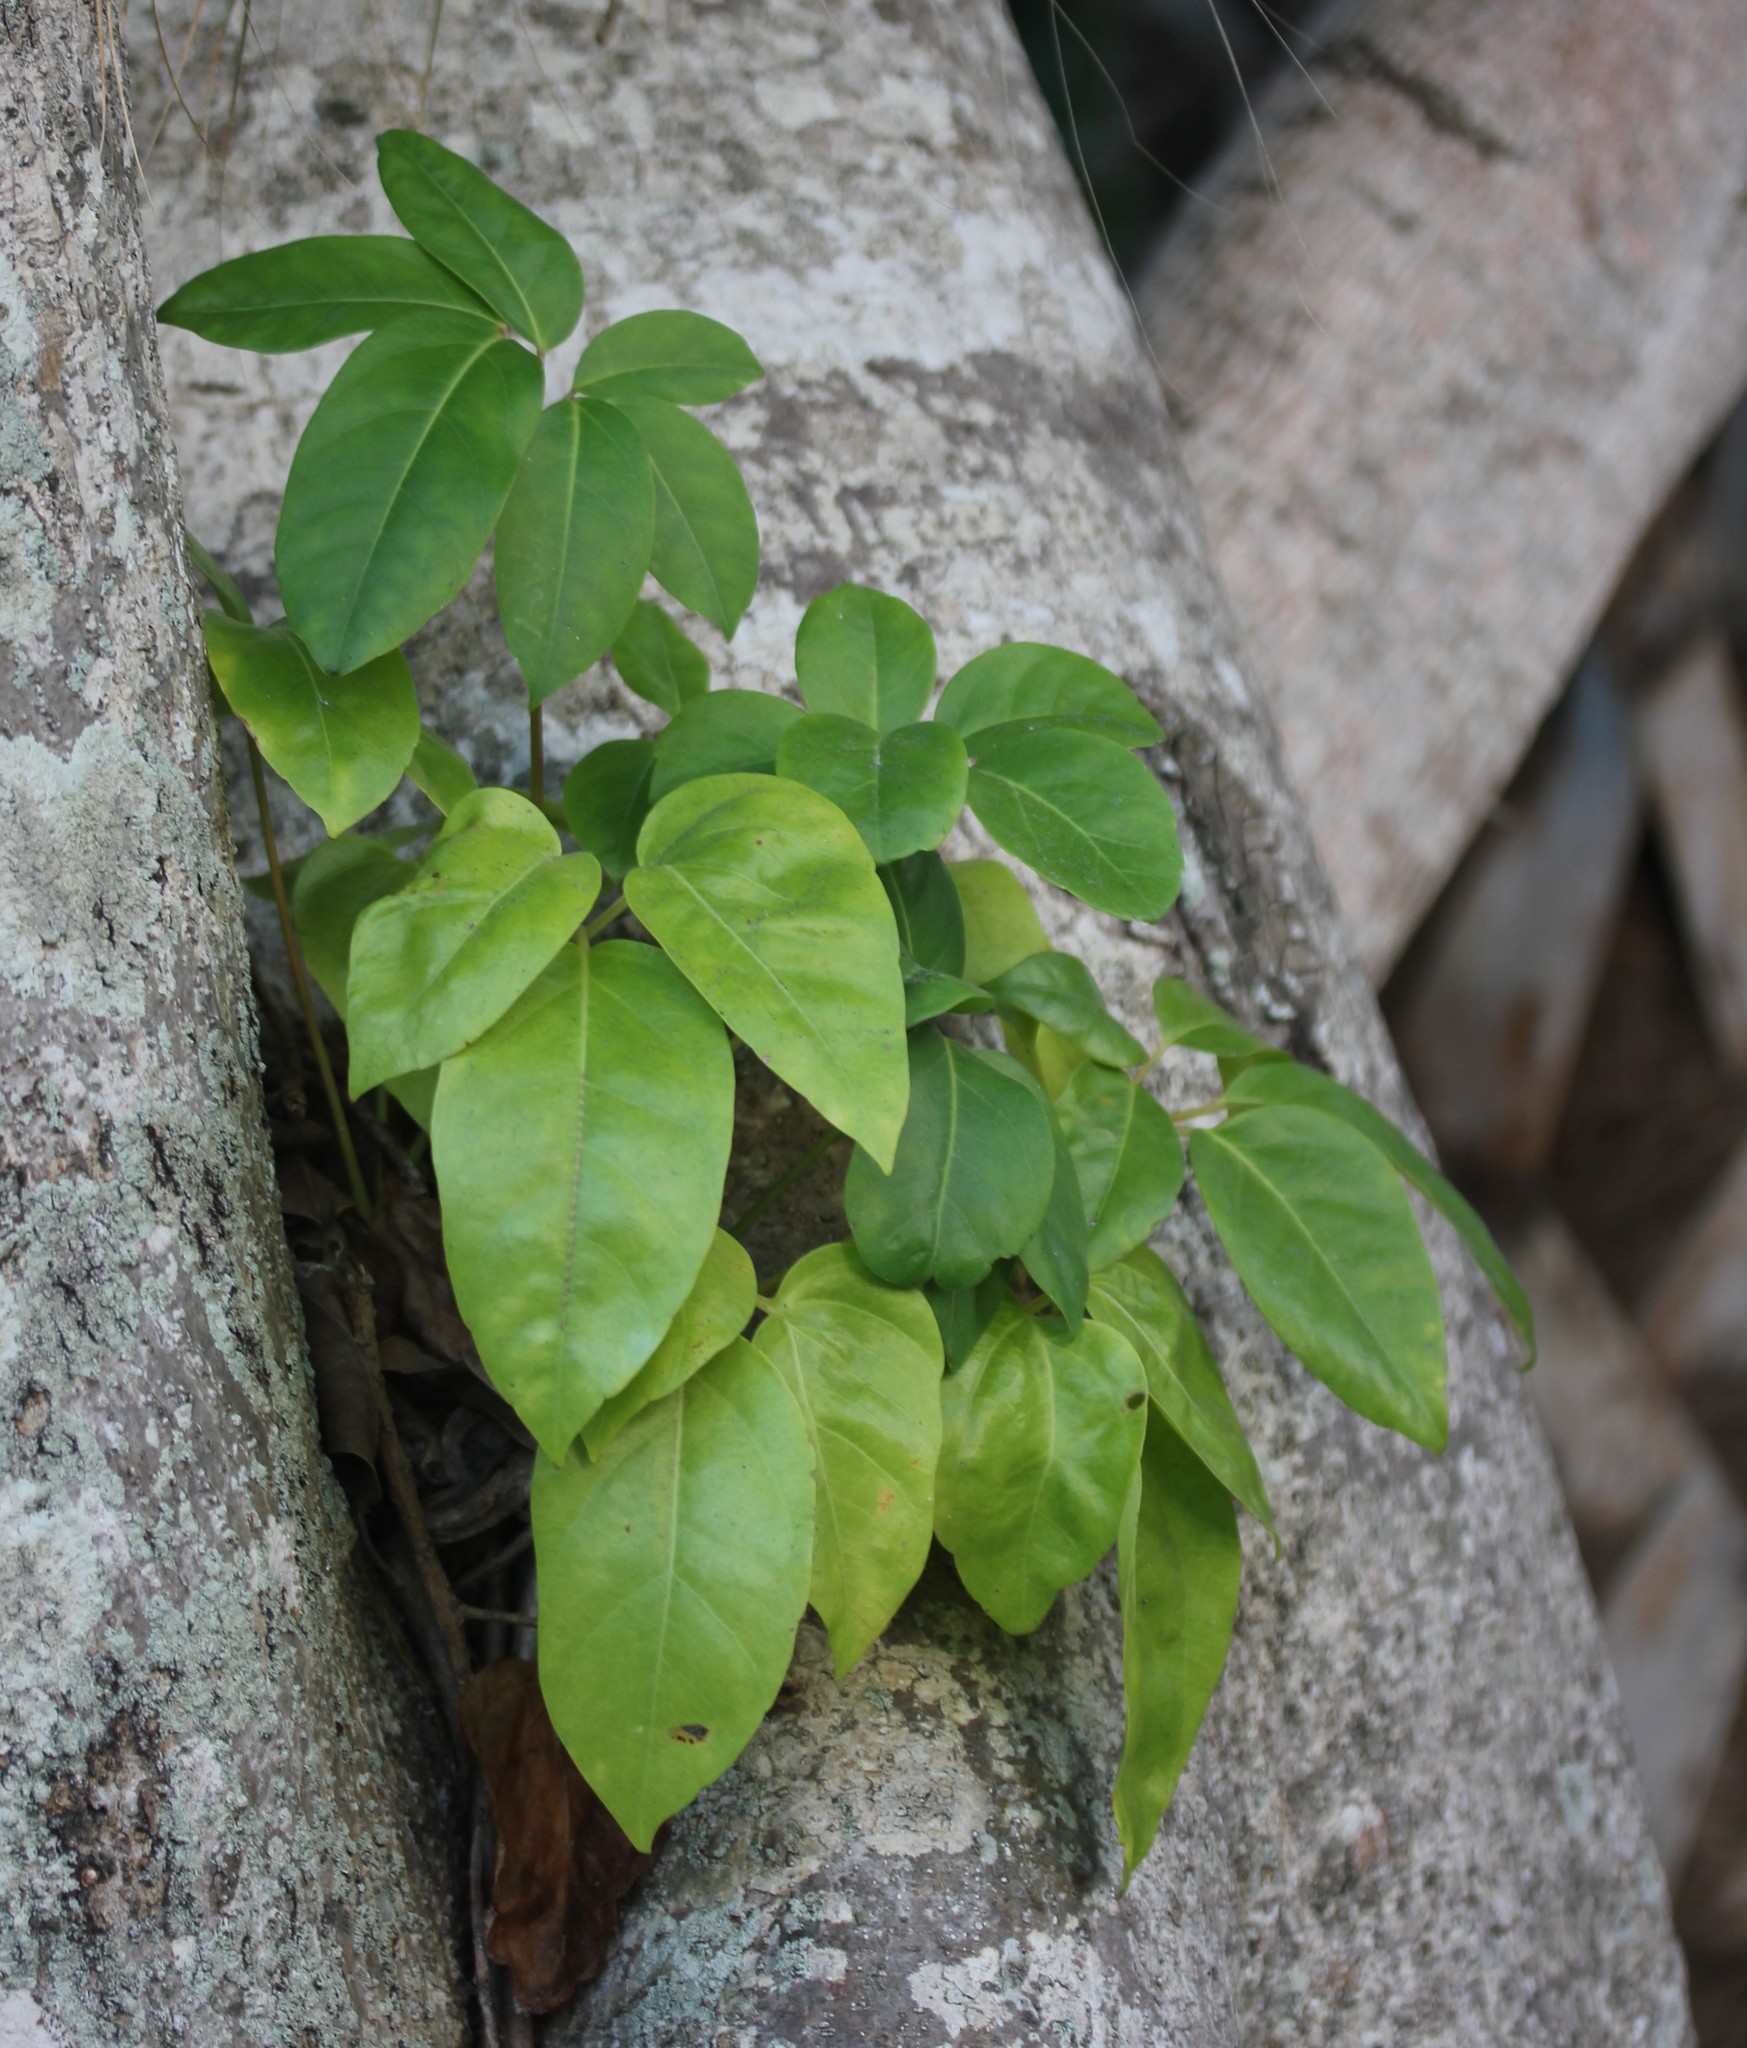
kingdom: Plantae
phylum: Tracheophyta
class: Magnoliopsida
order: Apiales
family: Araliaceae
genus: Heptapleurum
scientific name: Heptapleurum actinophyllum
